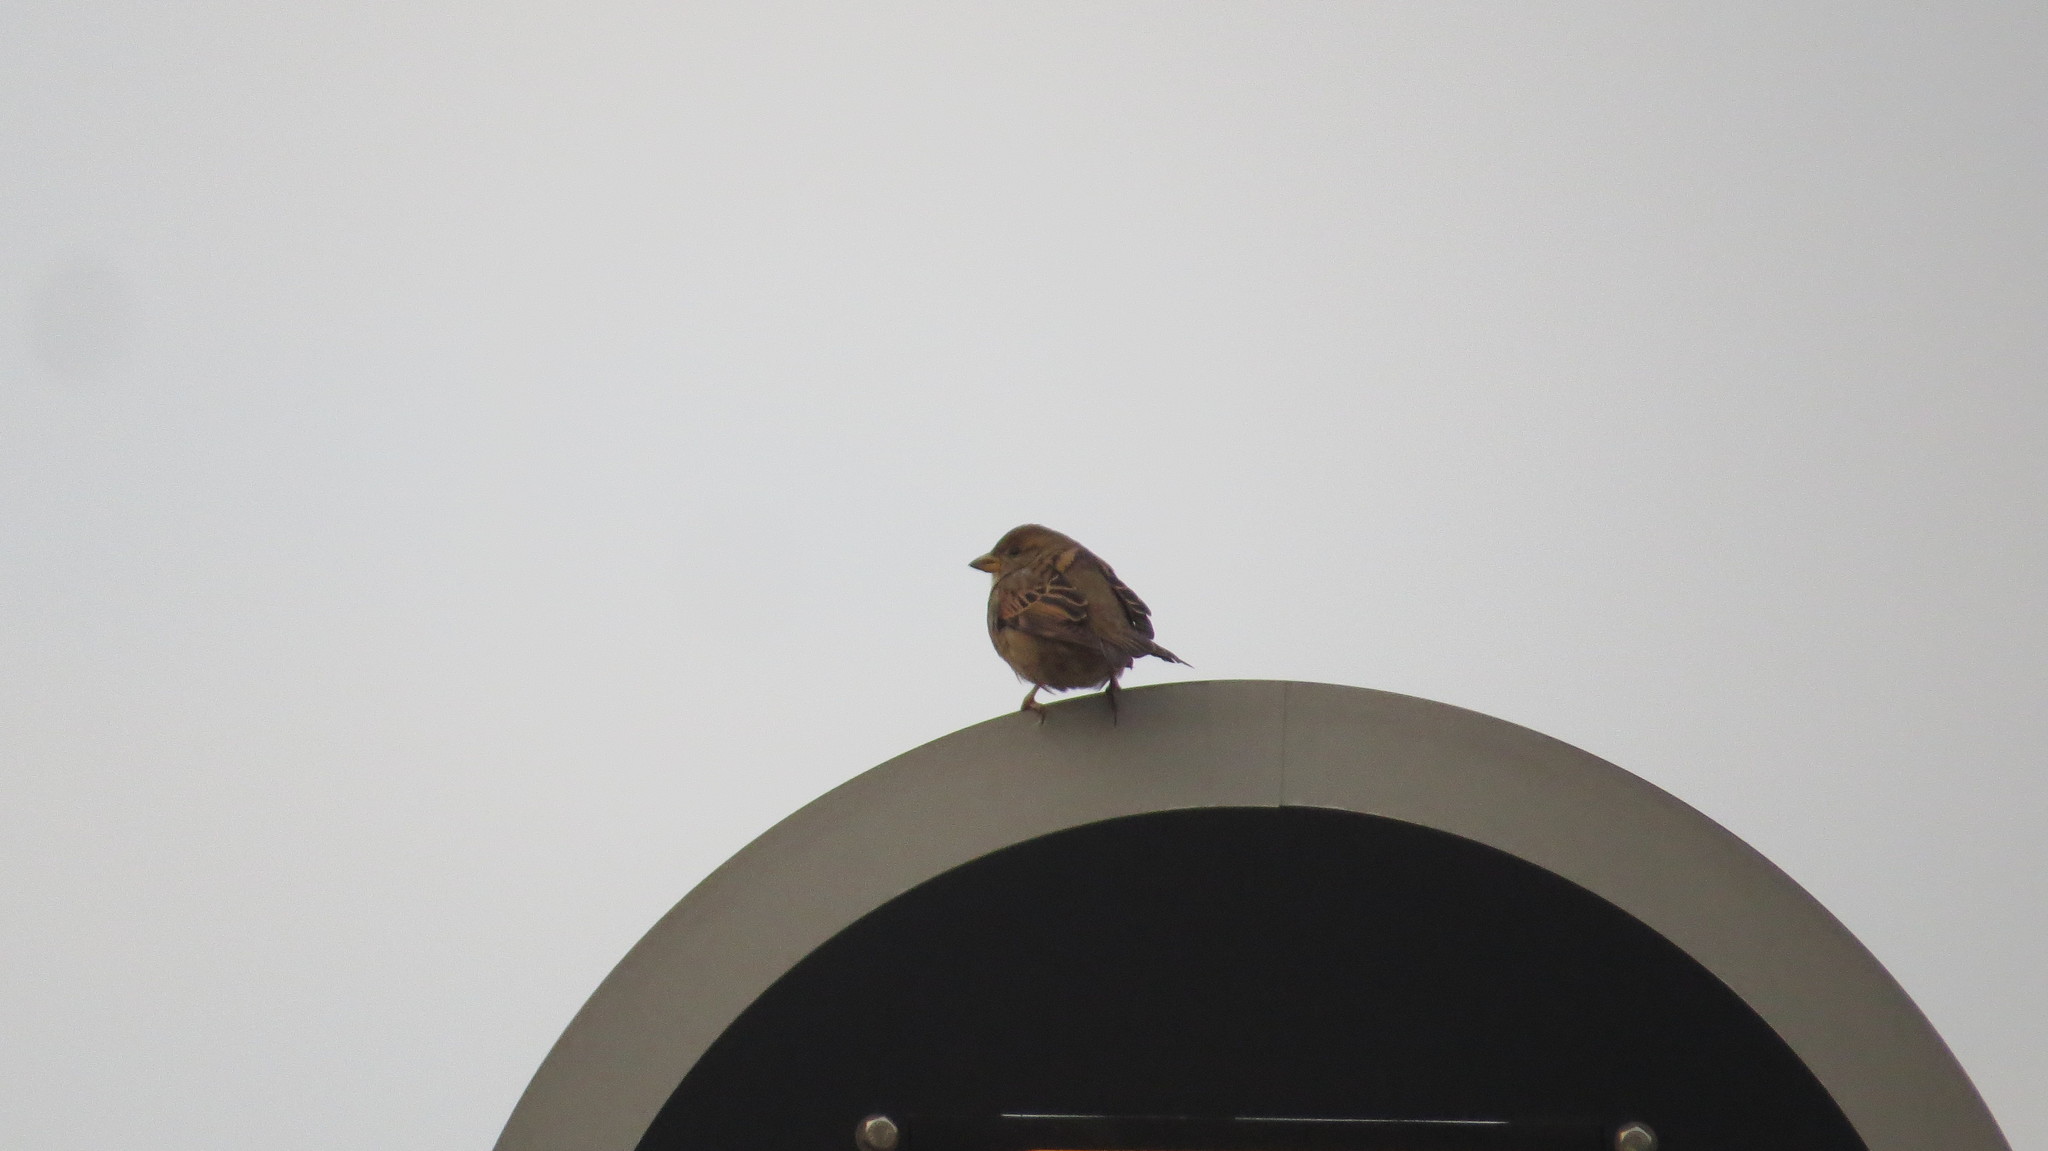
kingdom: Animalia
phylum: Chordata
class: Aves
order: Passeriformes
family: Passeridae
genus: Passer
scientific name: Passer domesticus
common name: House sparrow
